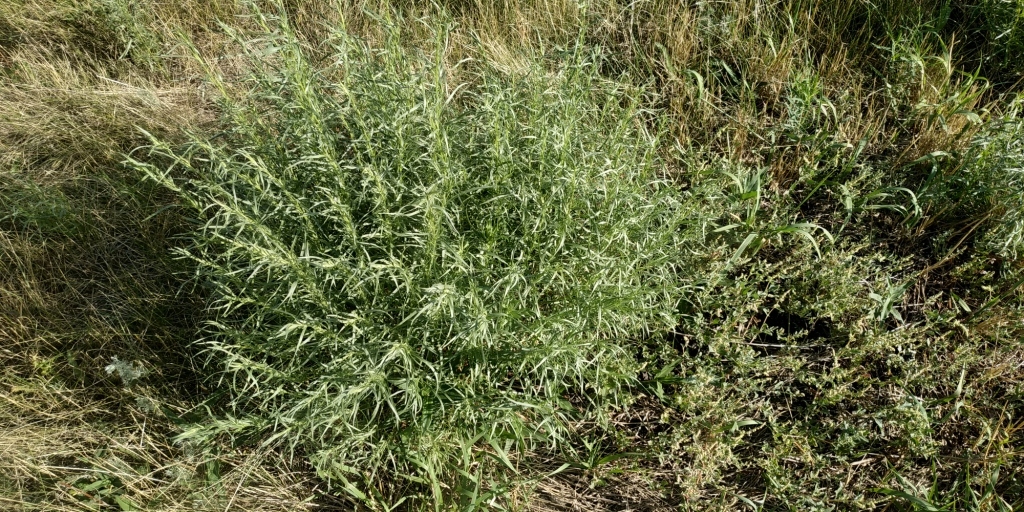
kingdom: Plantae
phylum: Tracheophyta
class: Magnoliopsida
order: Asterales
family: Asteraceae
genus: Artemisia
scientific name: Artemisia dracunculus
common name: Tarragon
